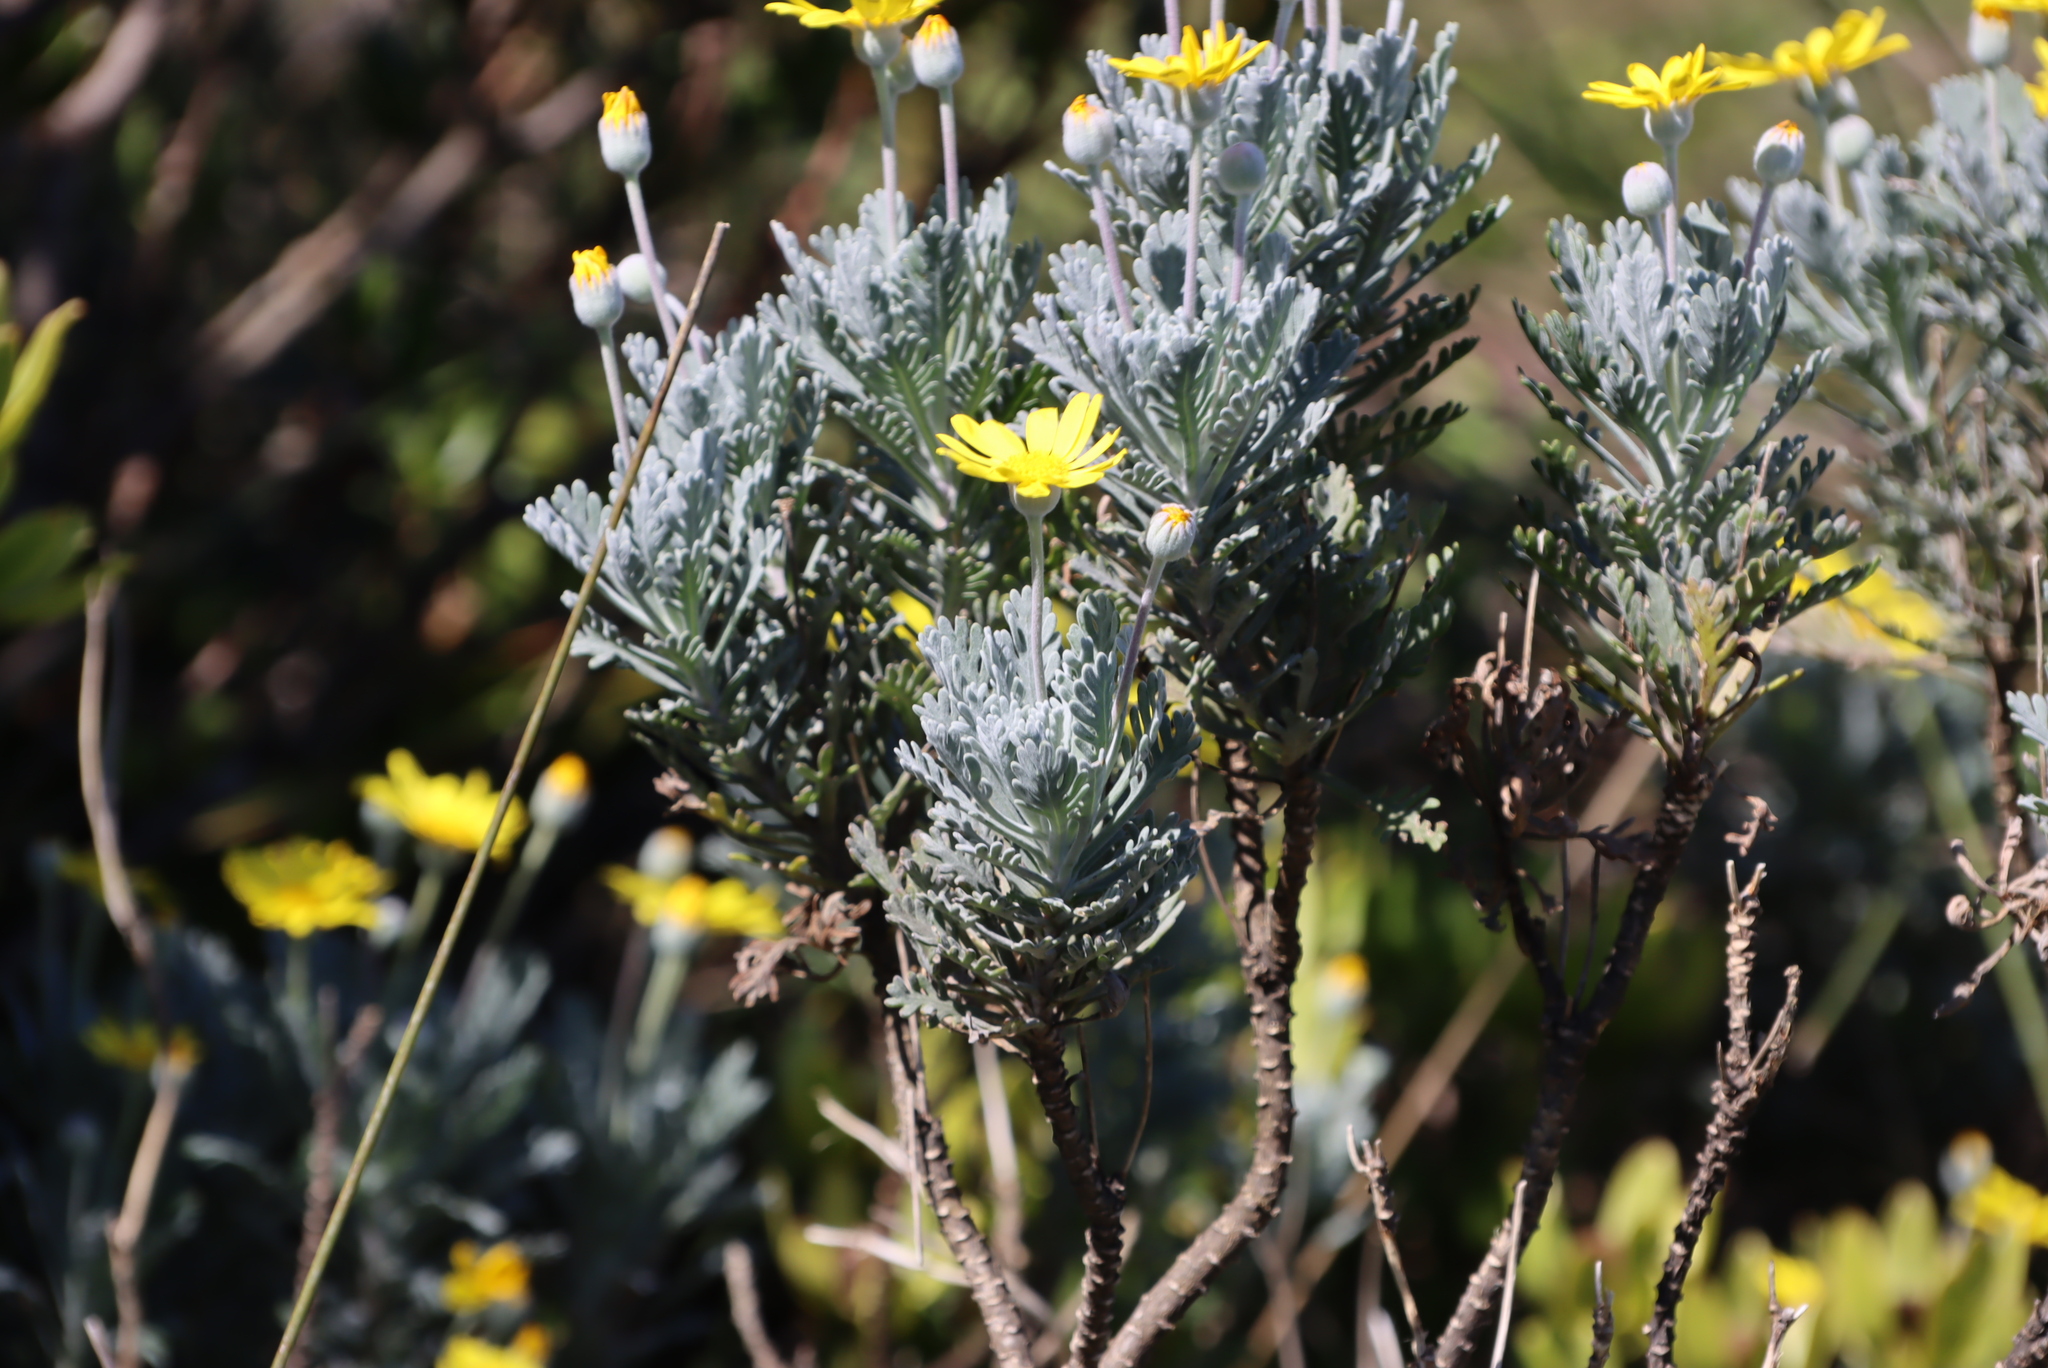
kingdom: Plantae
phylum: Tracheophyta
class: Magnoliopsida
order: Asterales
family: Asteraceae
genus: Euryops
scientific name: Euryops pectinatus
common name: Gray-leaf euryops
